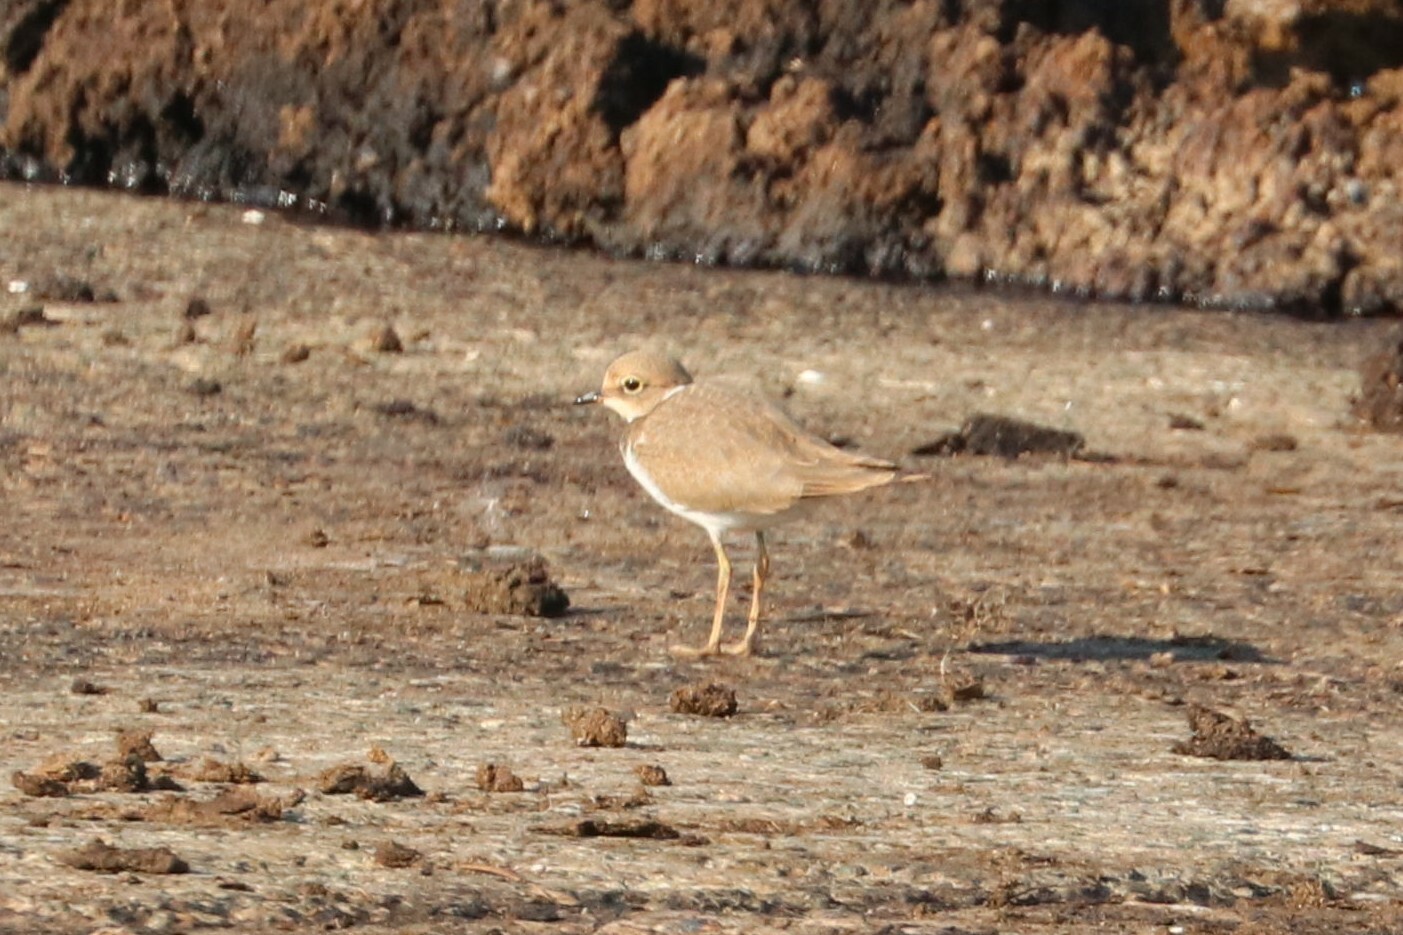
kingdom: Animalia
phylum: Chordata
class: Aves
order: Charadriiformes
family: Charadriidae
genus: Charadrius
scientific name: Charadrius dubius
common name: Little ringed plover
